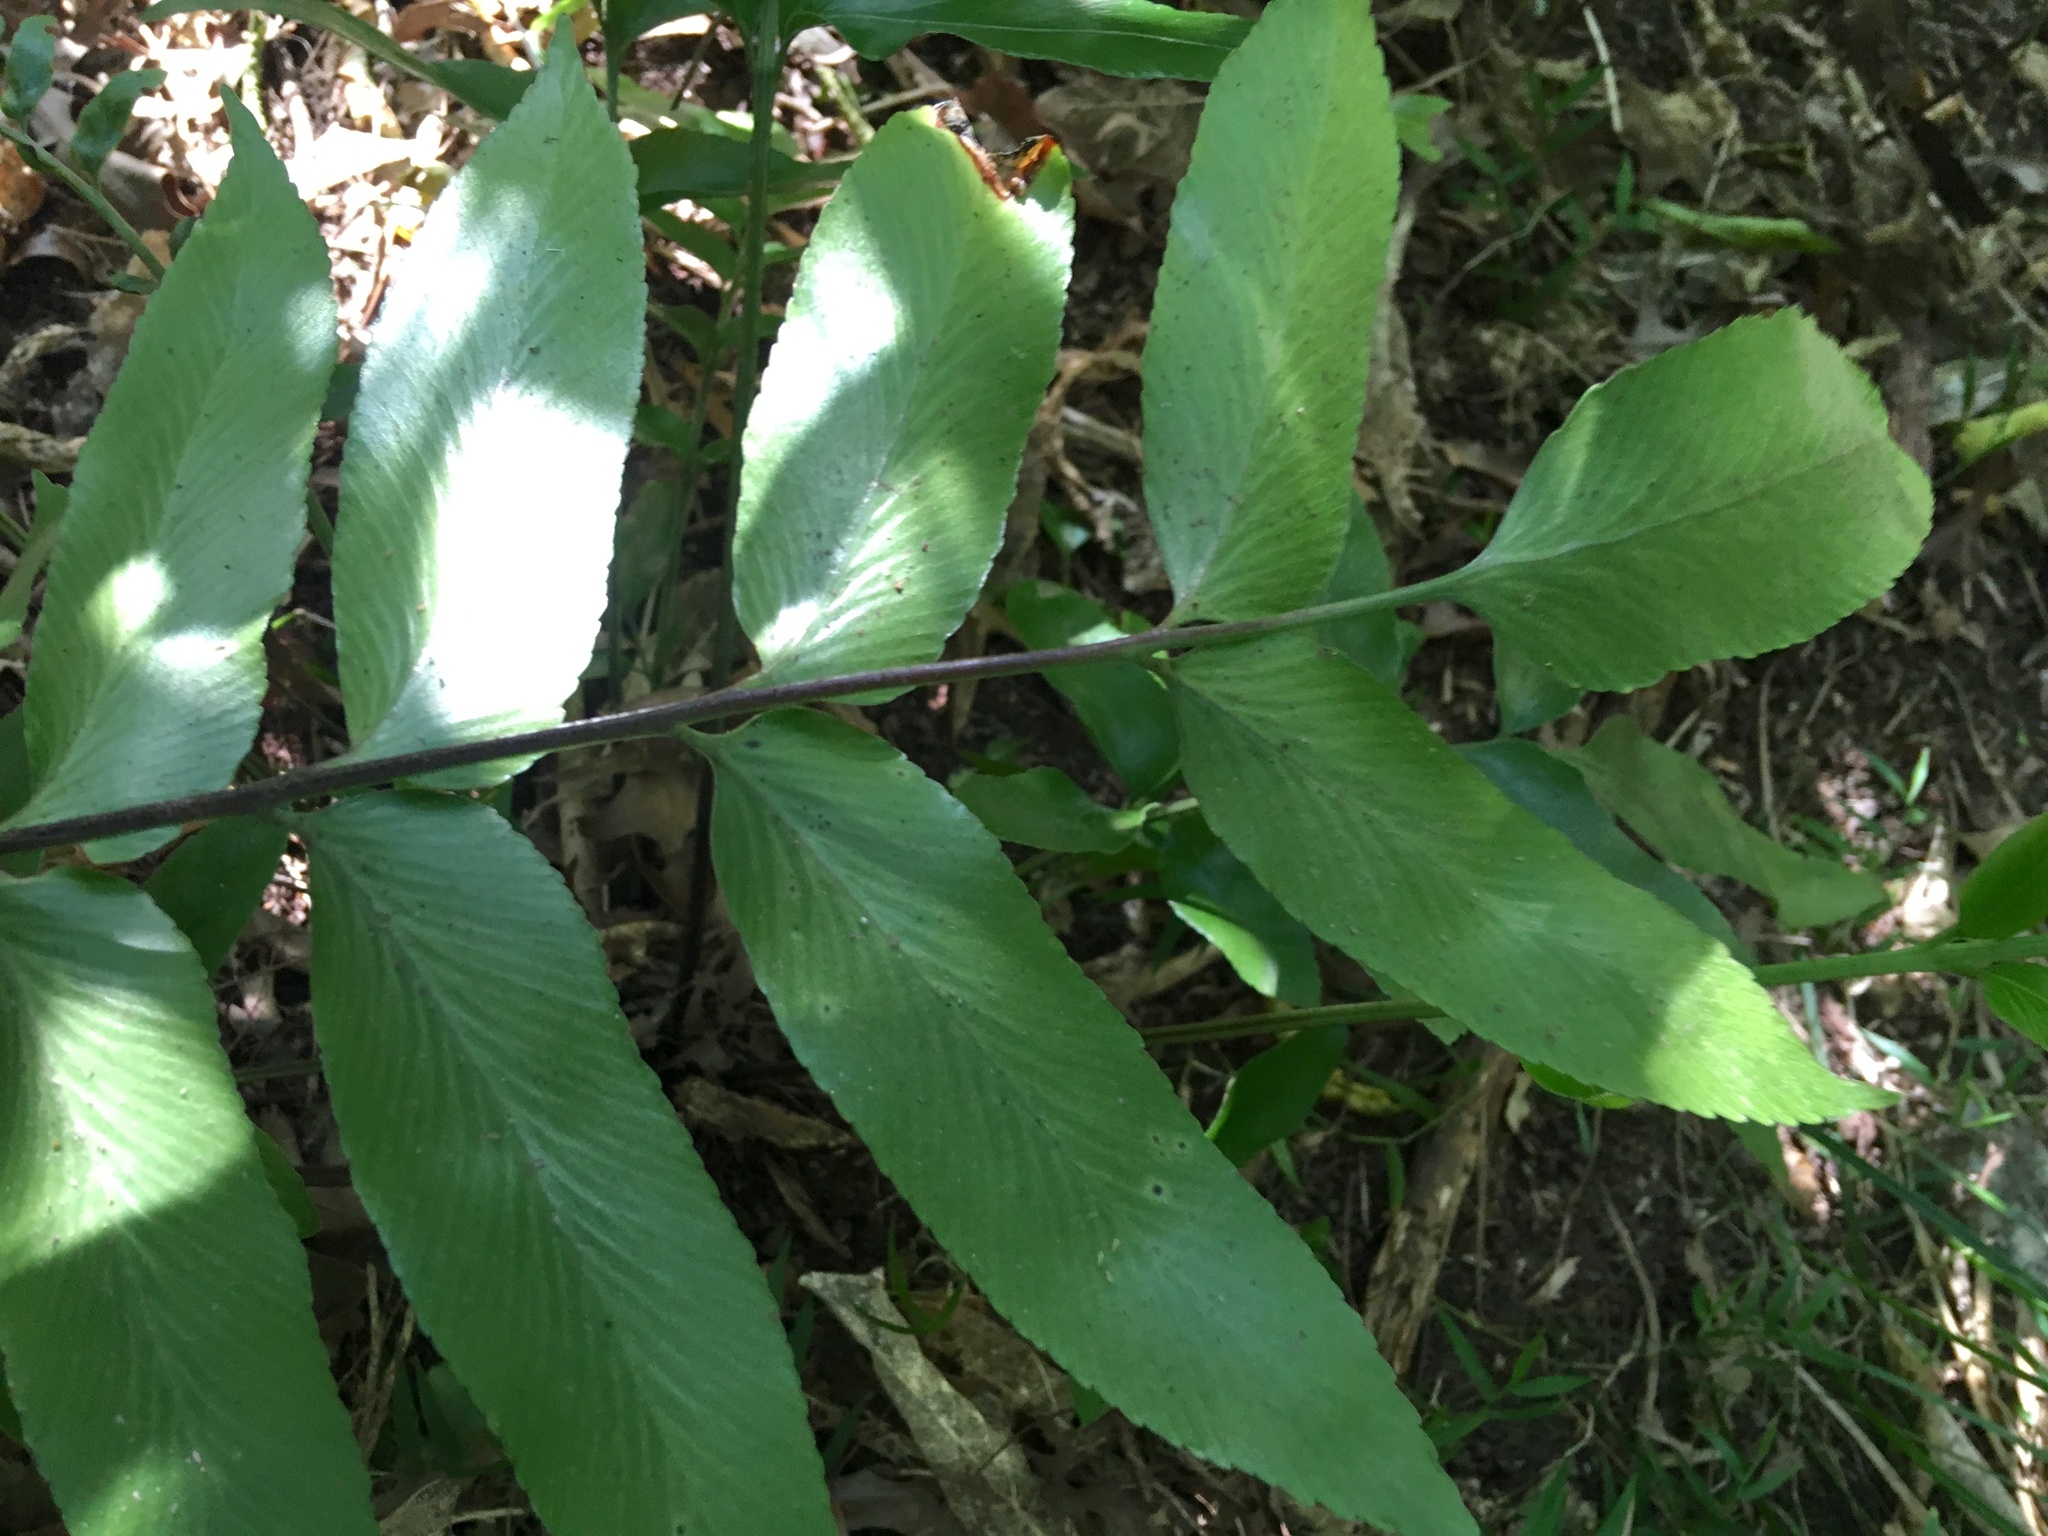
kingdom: Plantae
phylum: Tracheophyta
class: Polypodiopsida
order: Polypodiales
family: Aspleniaceae
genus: Asplenium
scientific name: Asplenium oblongifolium
